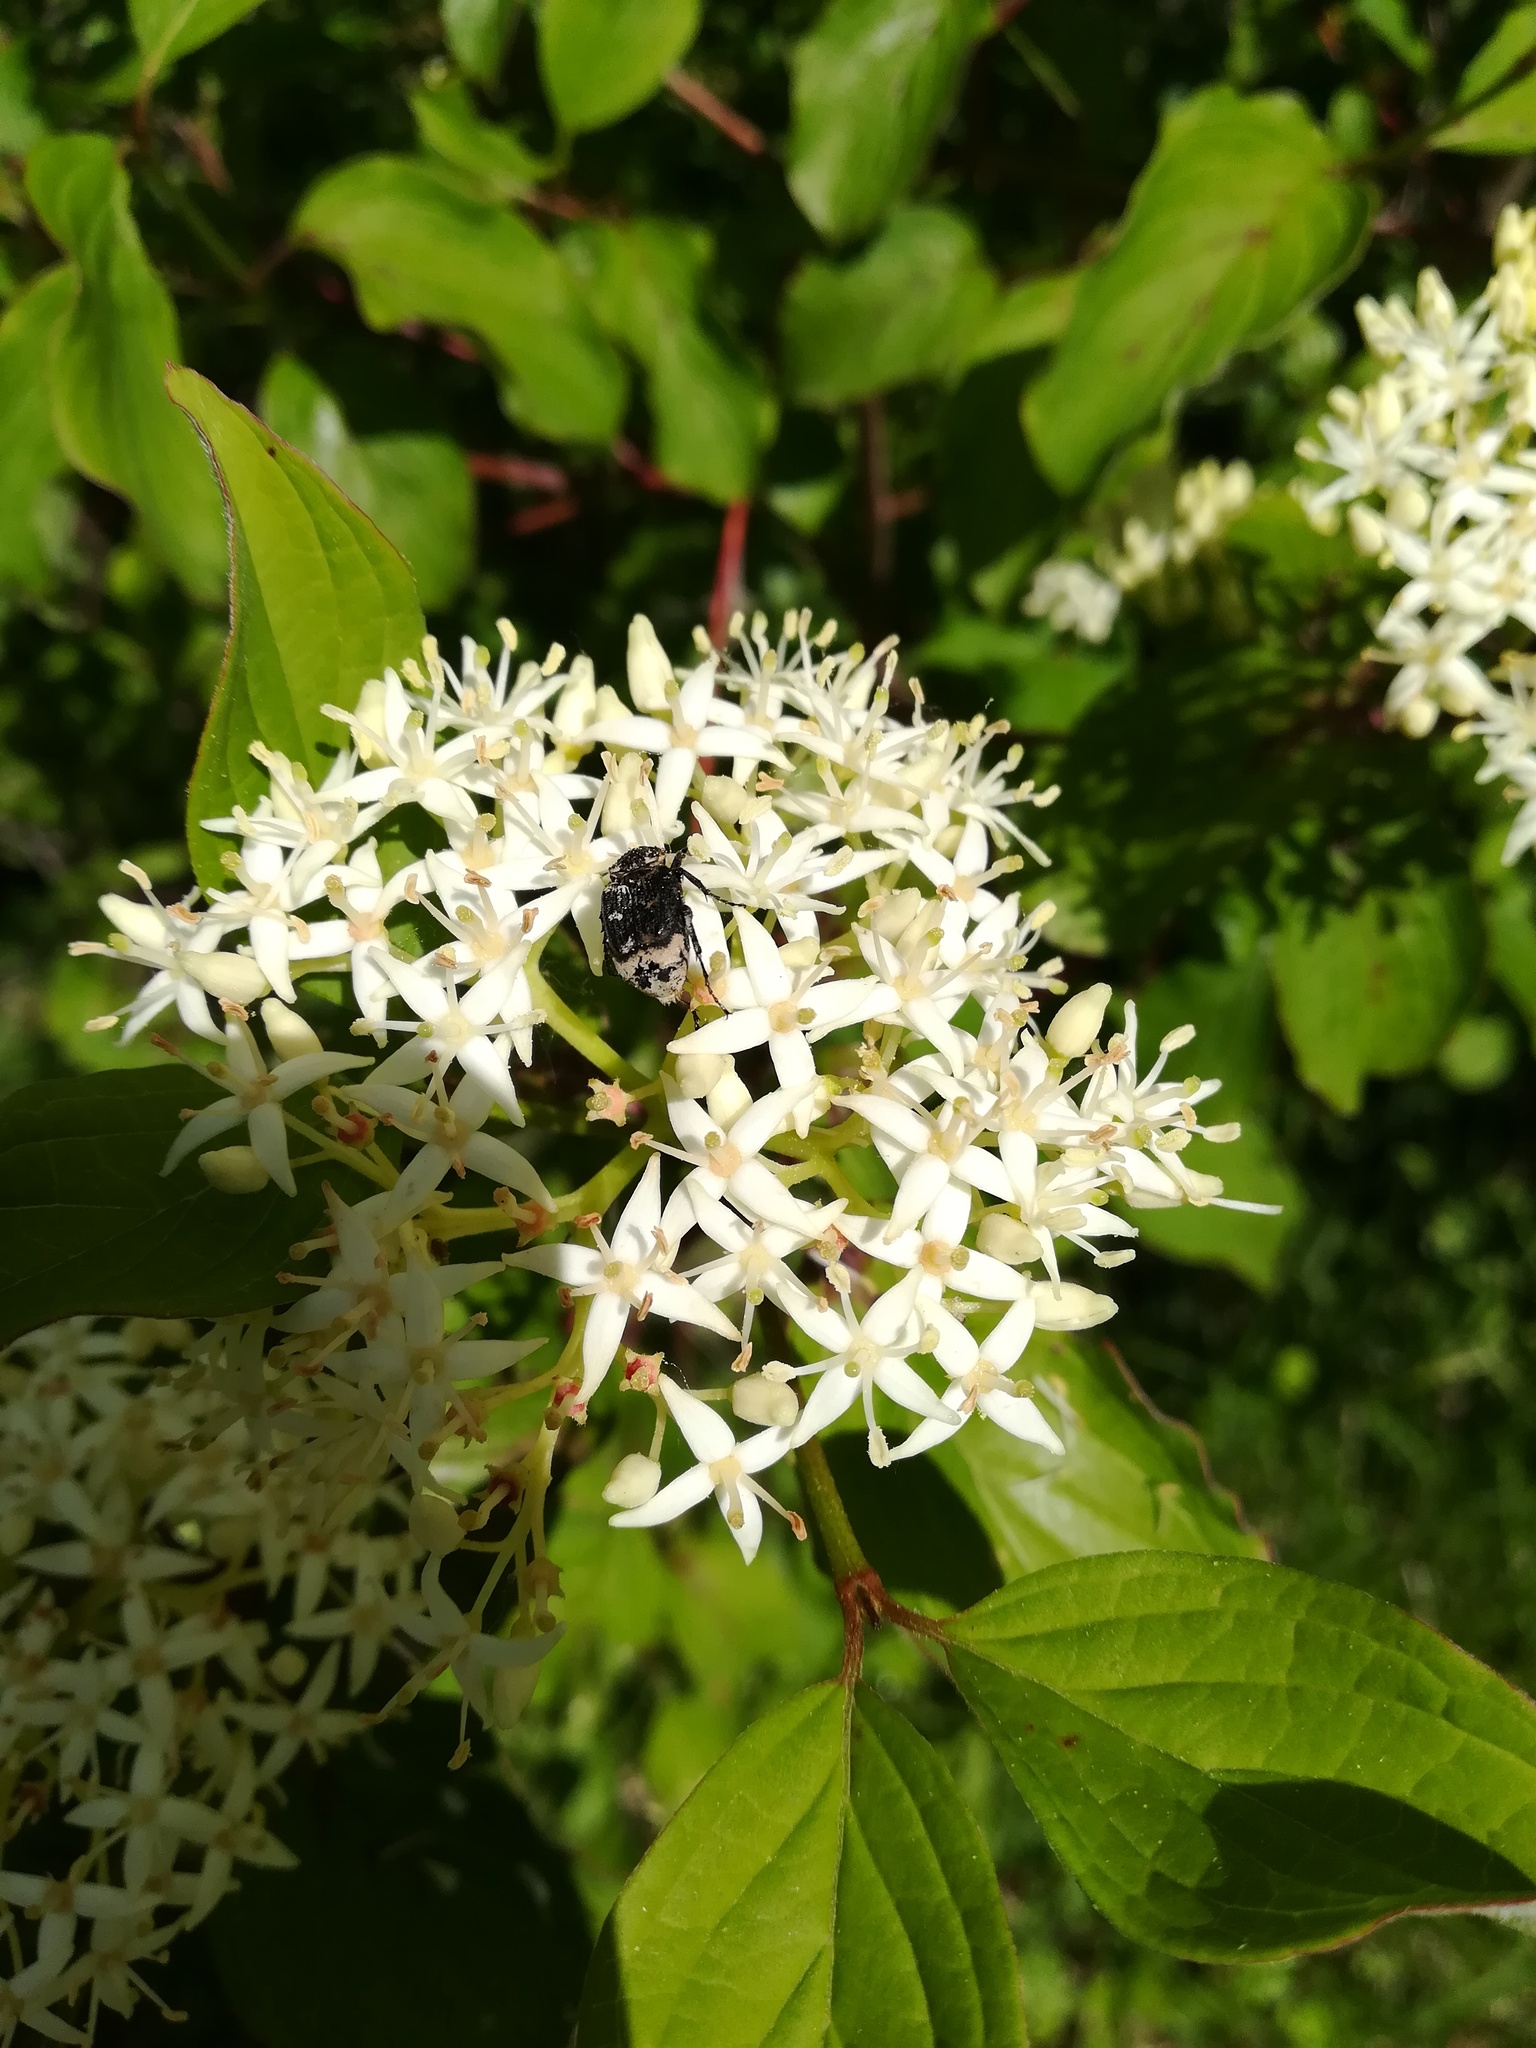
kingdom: Animalia
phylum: Arthropoda
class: Insecta
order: Coleoptera
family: Scarabaeidae
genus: Valgus
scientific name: Valgus hemipterus
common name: Bug flower chafer
